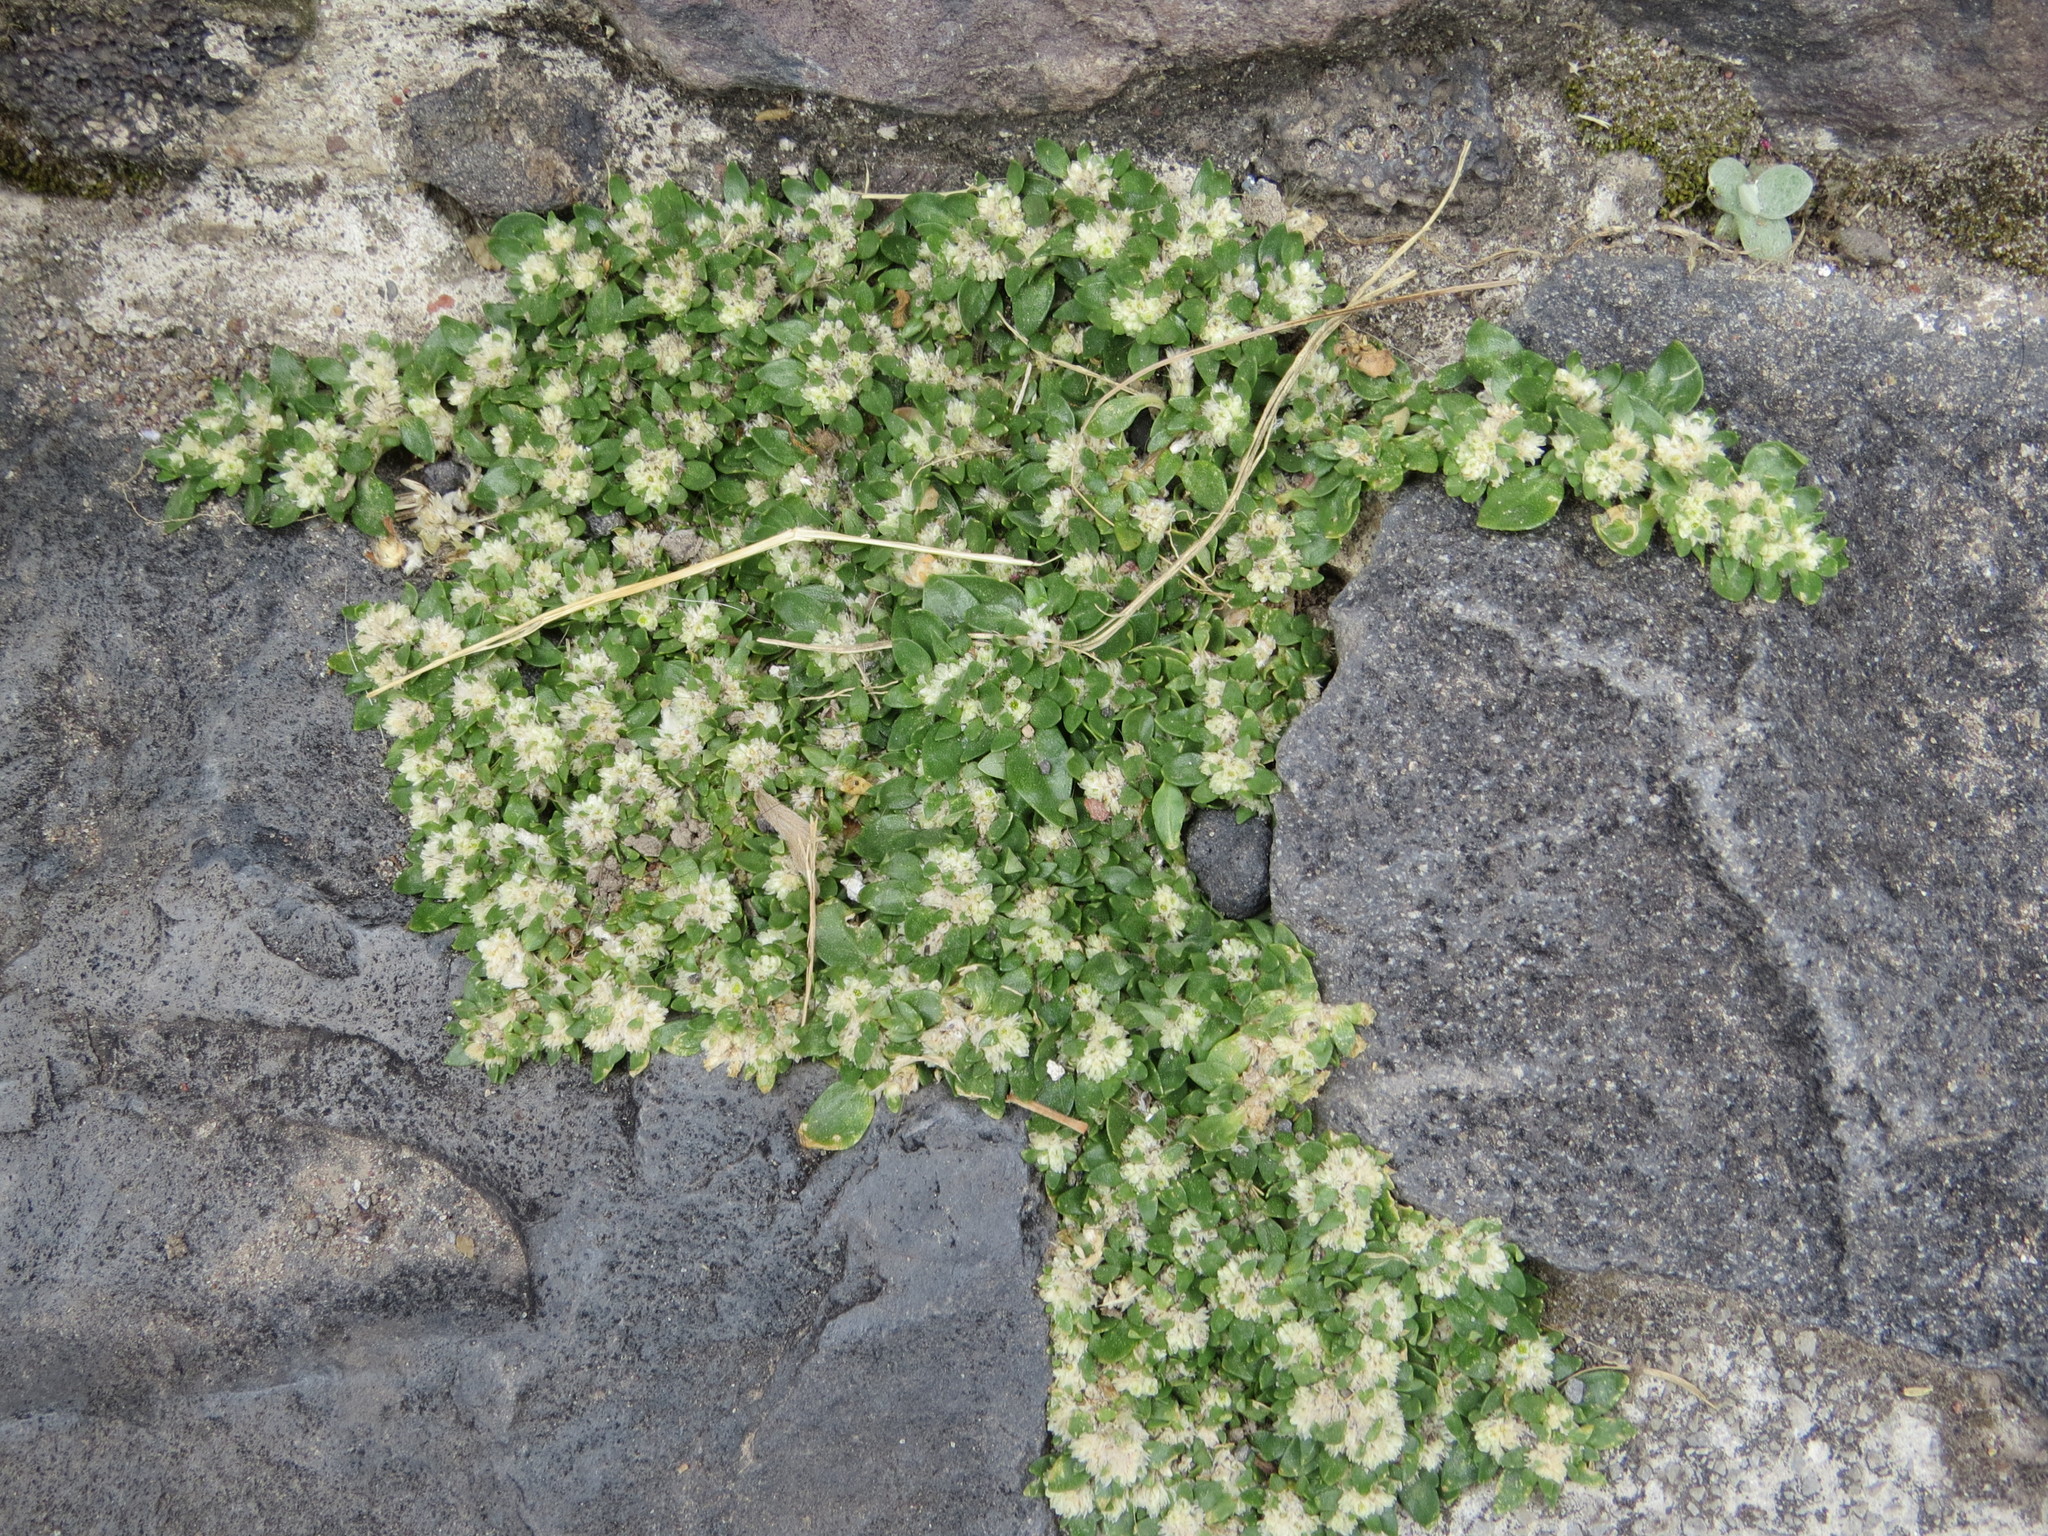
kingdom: Plantae
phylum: Tracheophyta
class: Magnoliopsida
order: Caryophyllales
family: Amaranthaceae
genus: Guilleminea
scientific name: Guilleminea densa
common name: Small matweed
